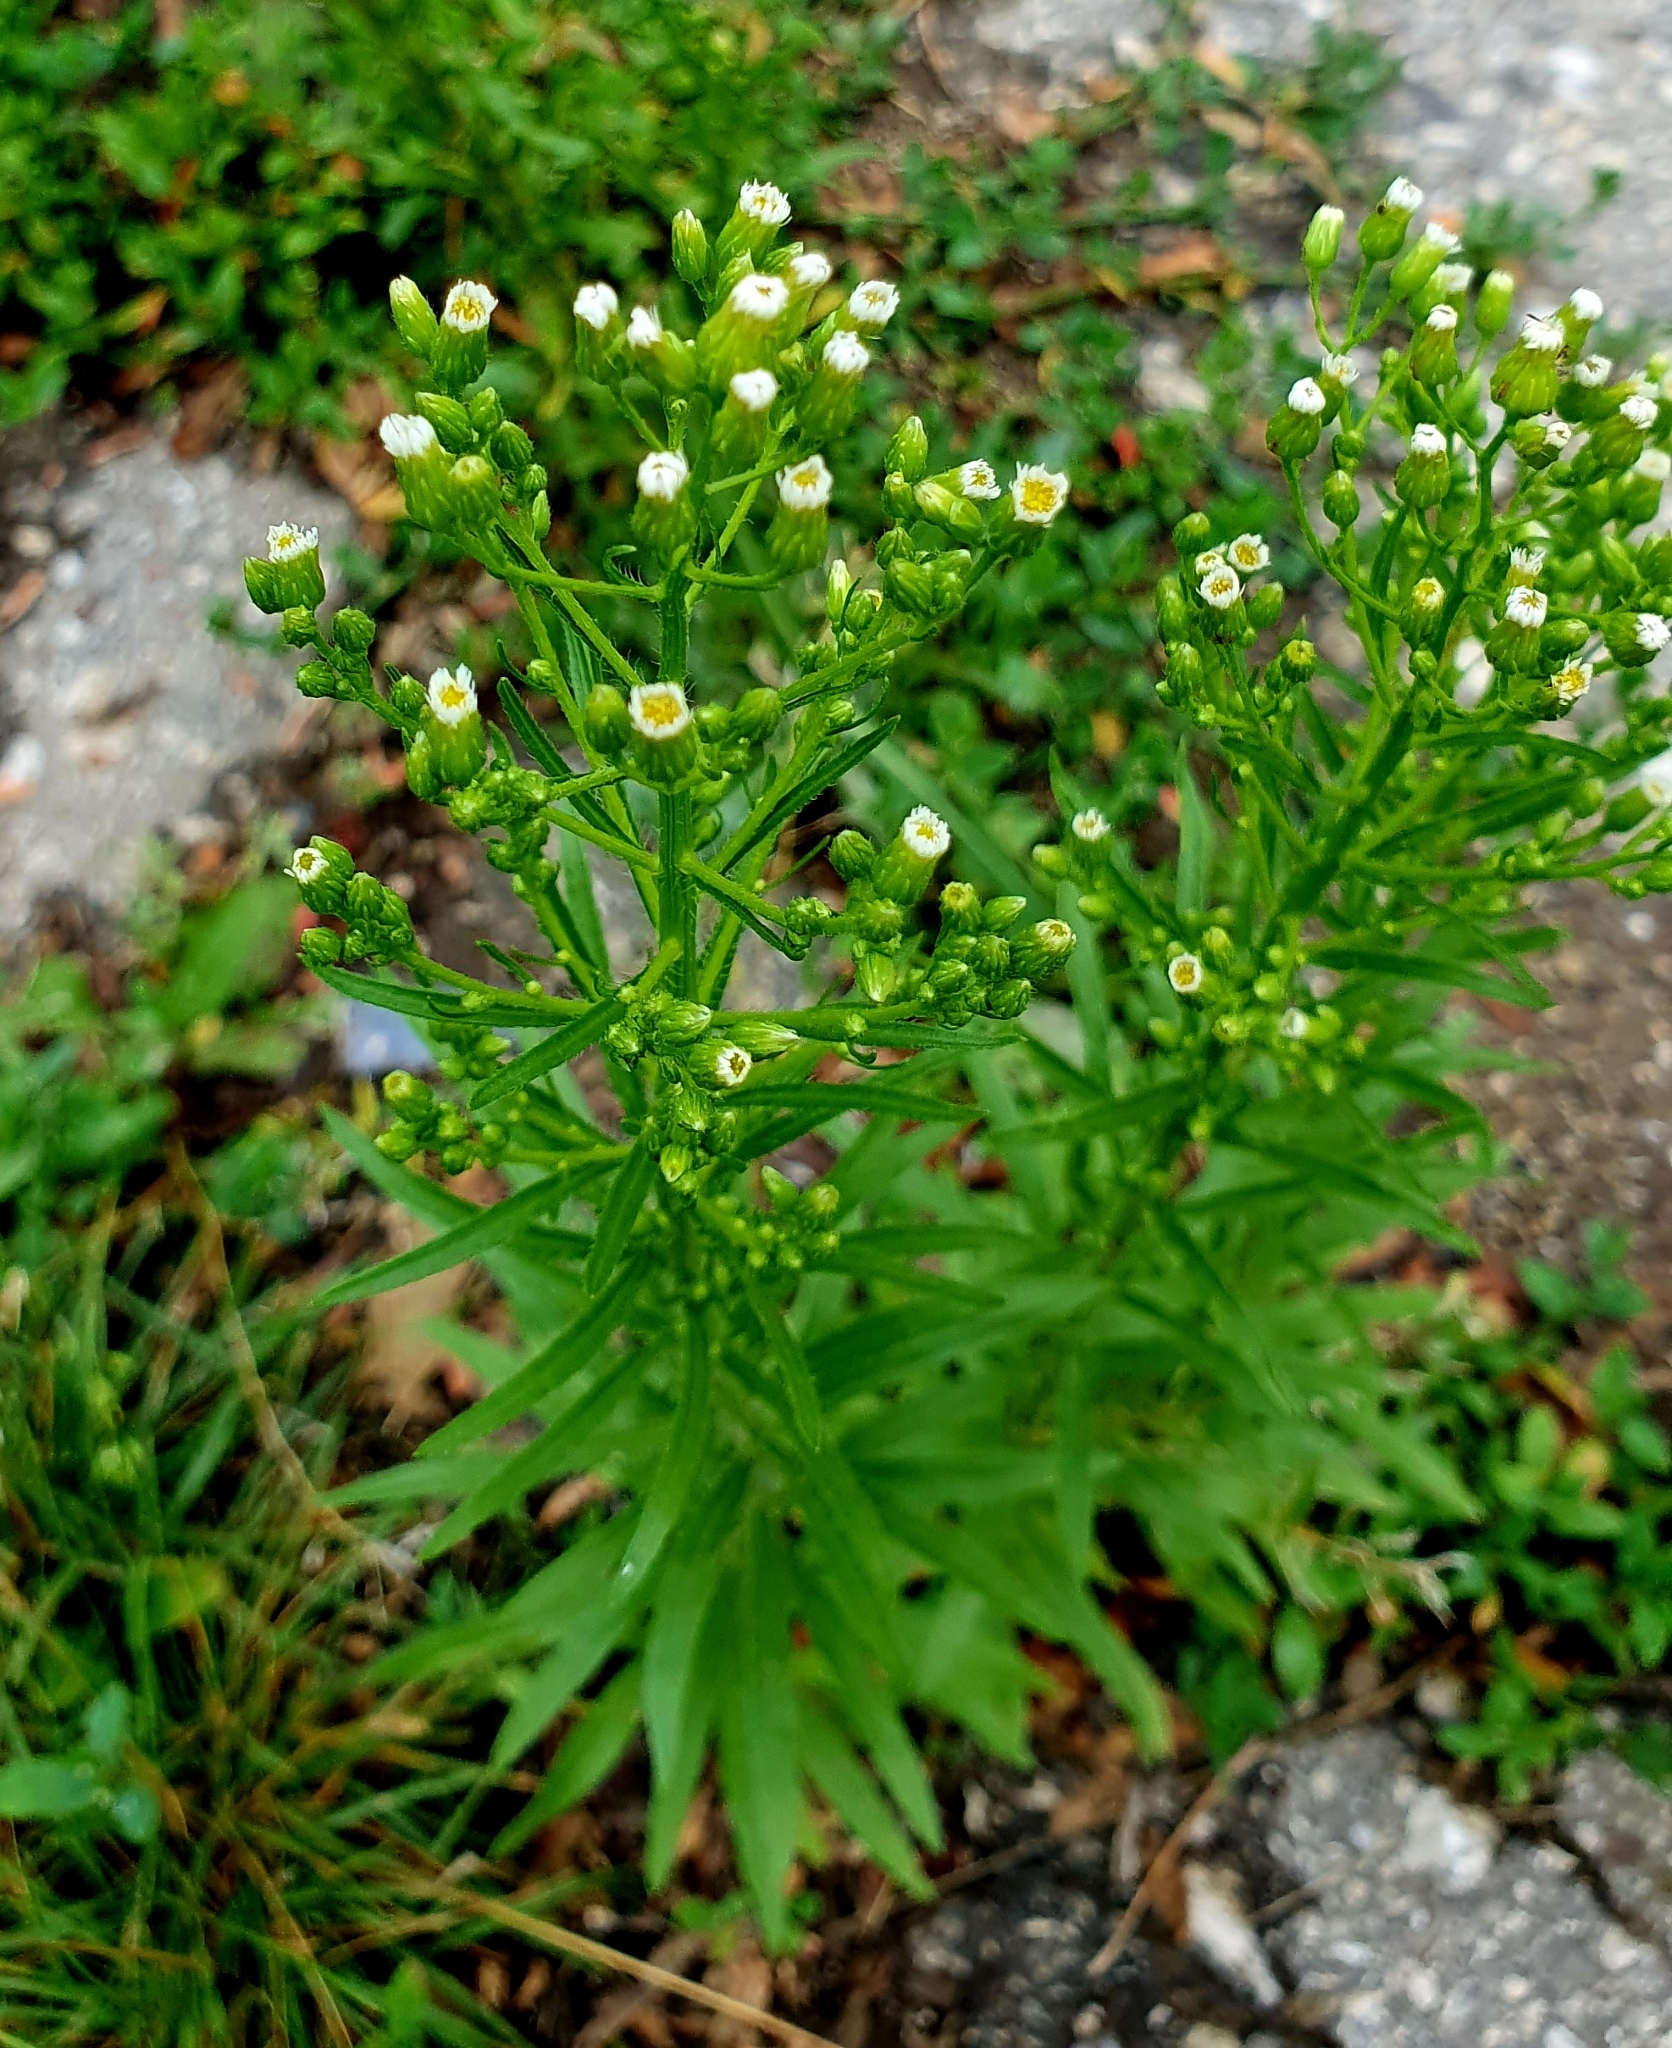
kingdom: Plantae
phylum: Tracheophyta
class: Magnoliopsida
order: Asterales
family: Asteraceae
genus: Erigeron
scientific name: Erigeron canadensis
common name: Canadian fleabane
